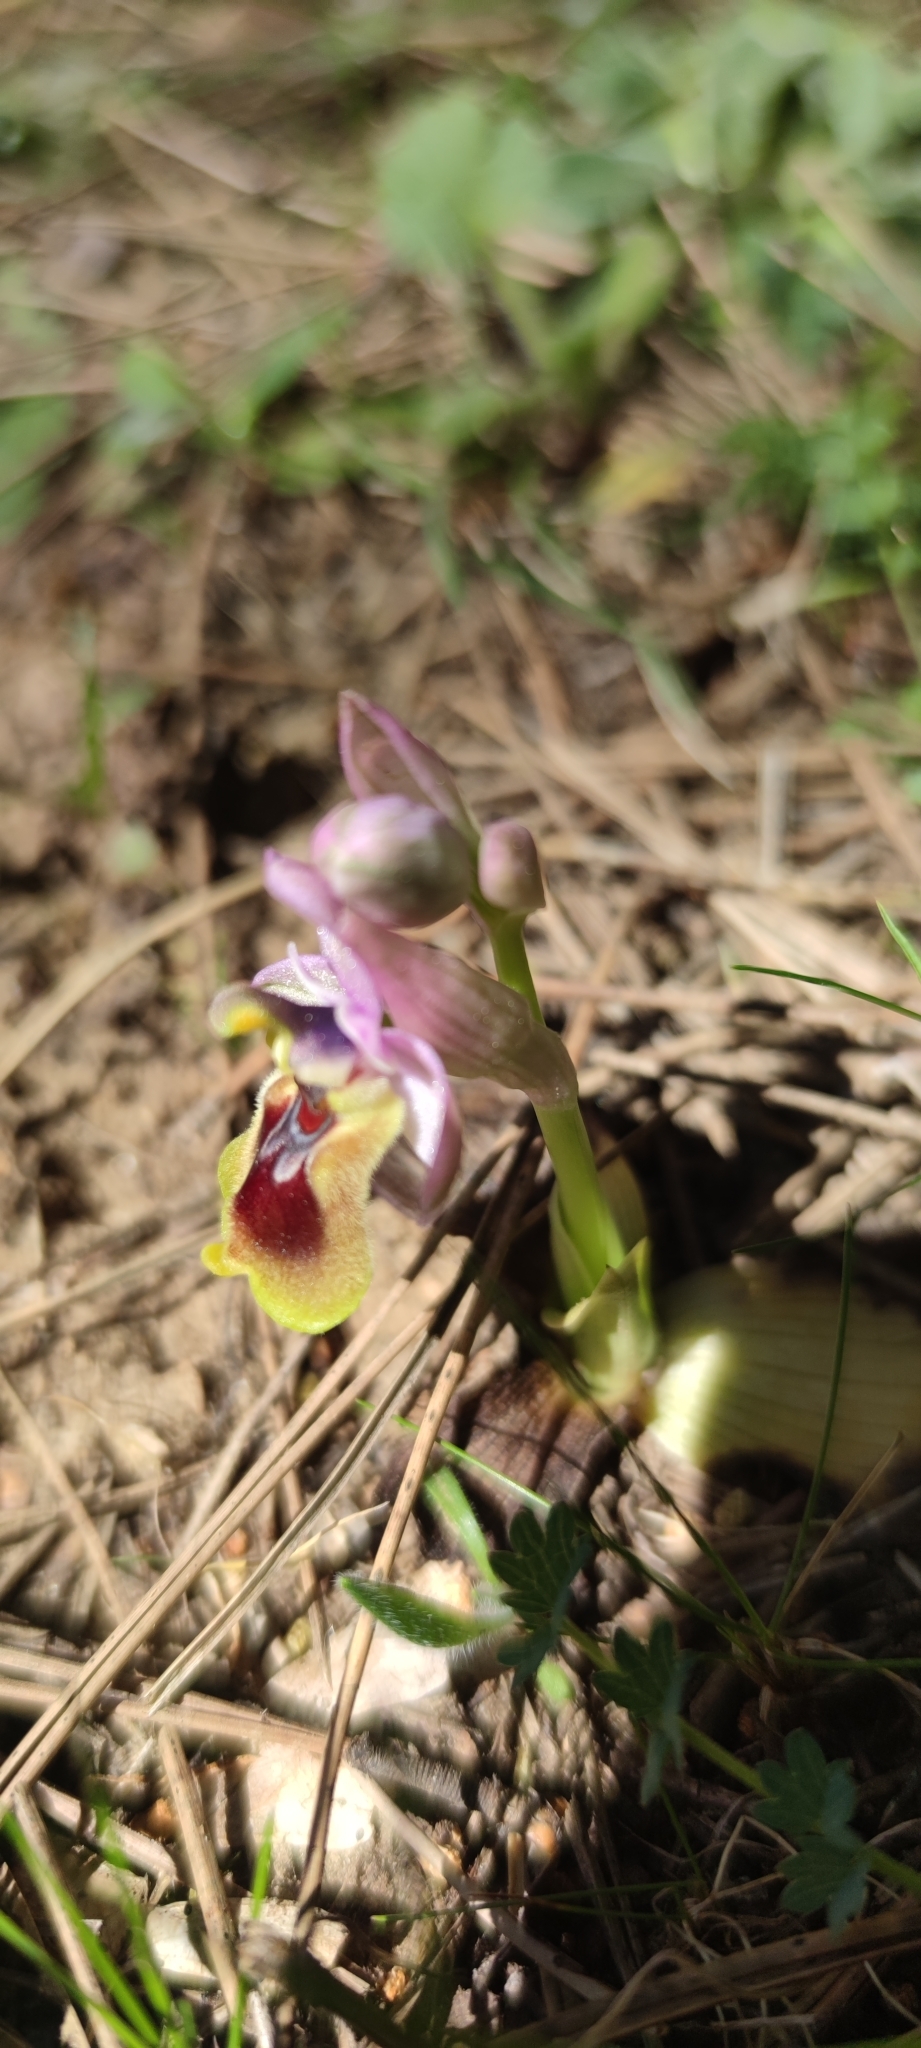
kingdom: Plantae
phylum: Tracheophyta
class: Liliopsida
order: Asparagales
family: Orchidaceae
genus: Ophrys
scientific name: Ophrys tenthredinifera
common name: Sawfly orchid
